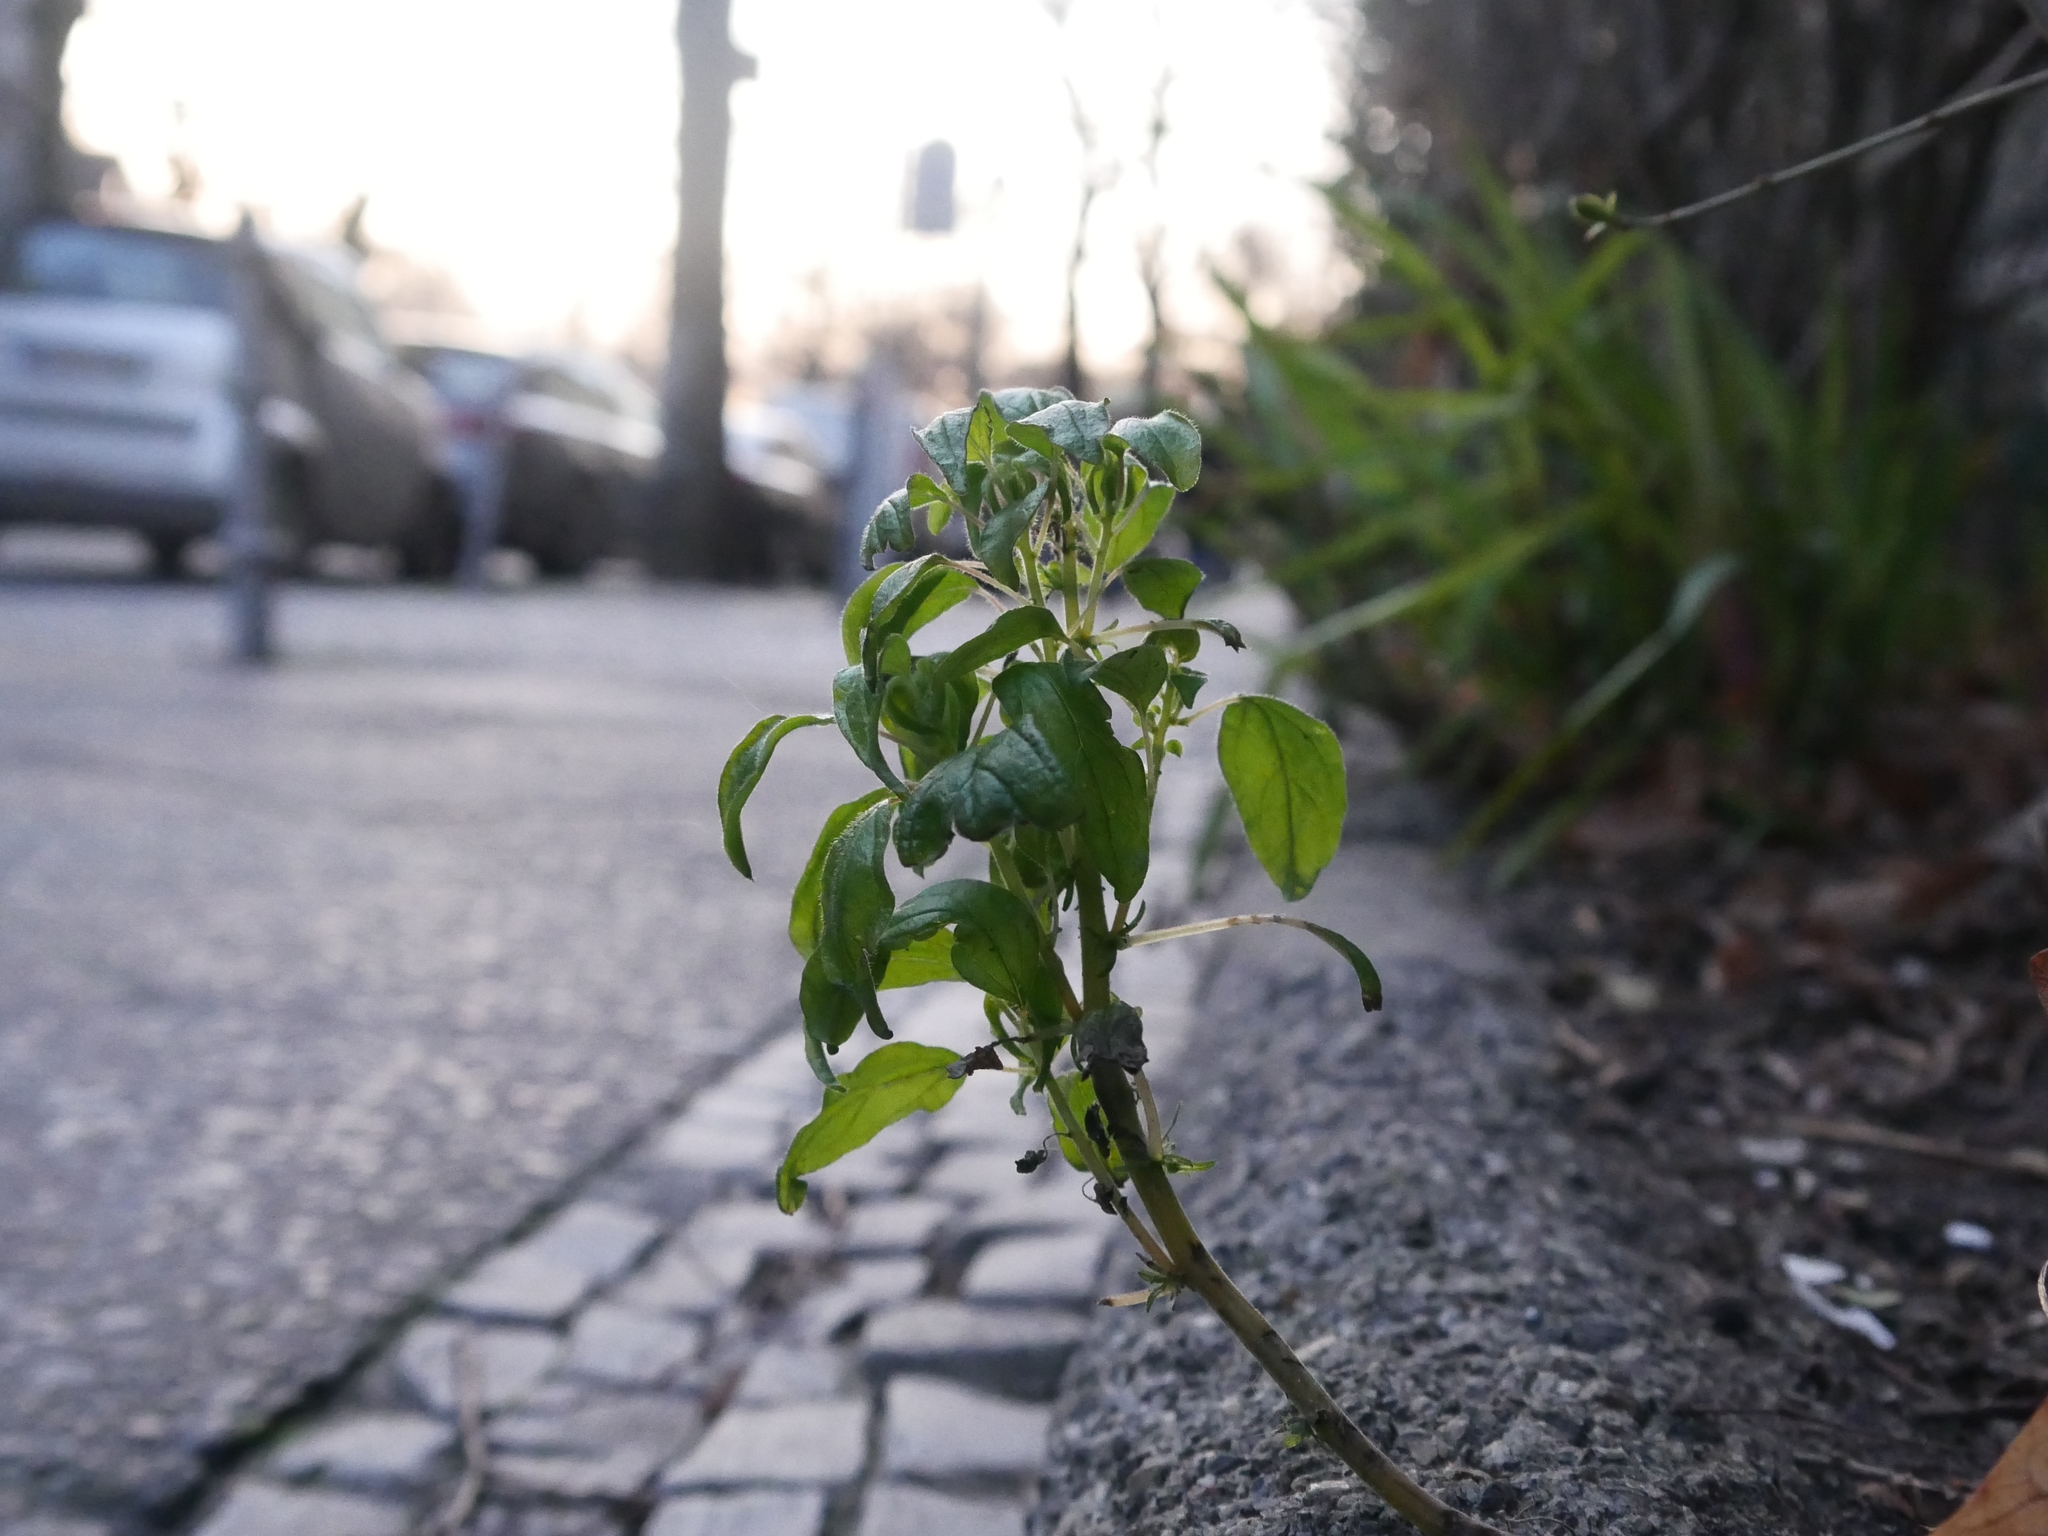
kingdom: Plantae
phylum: Tracheophyta
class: Magnoliopsida
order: Rosales
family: Urticaceae
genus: Parietaria
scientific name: Parietaria pensylvanica
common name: Pennsylvania pellitory
